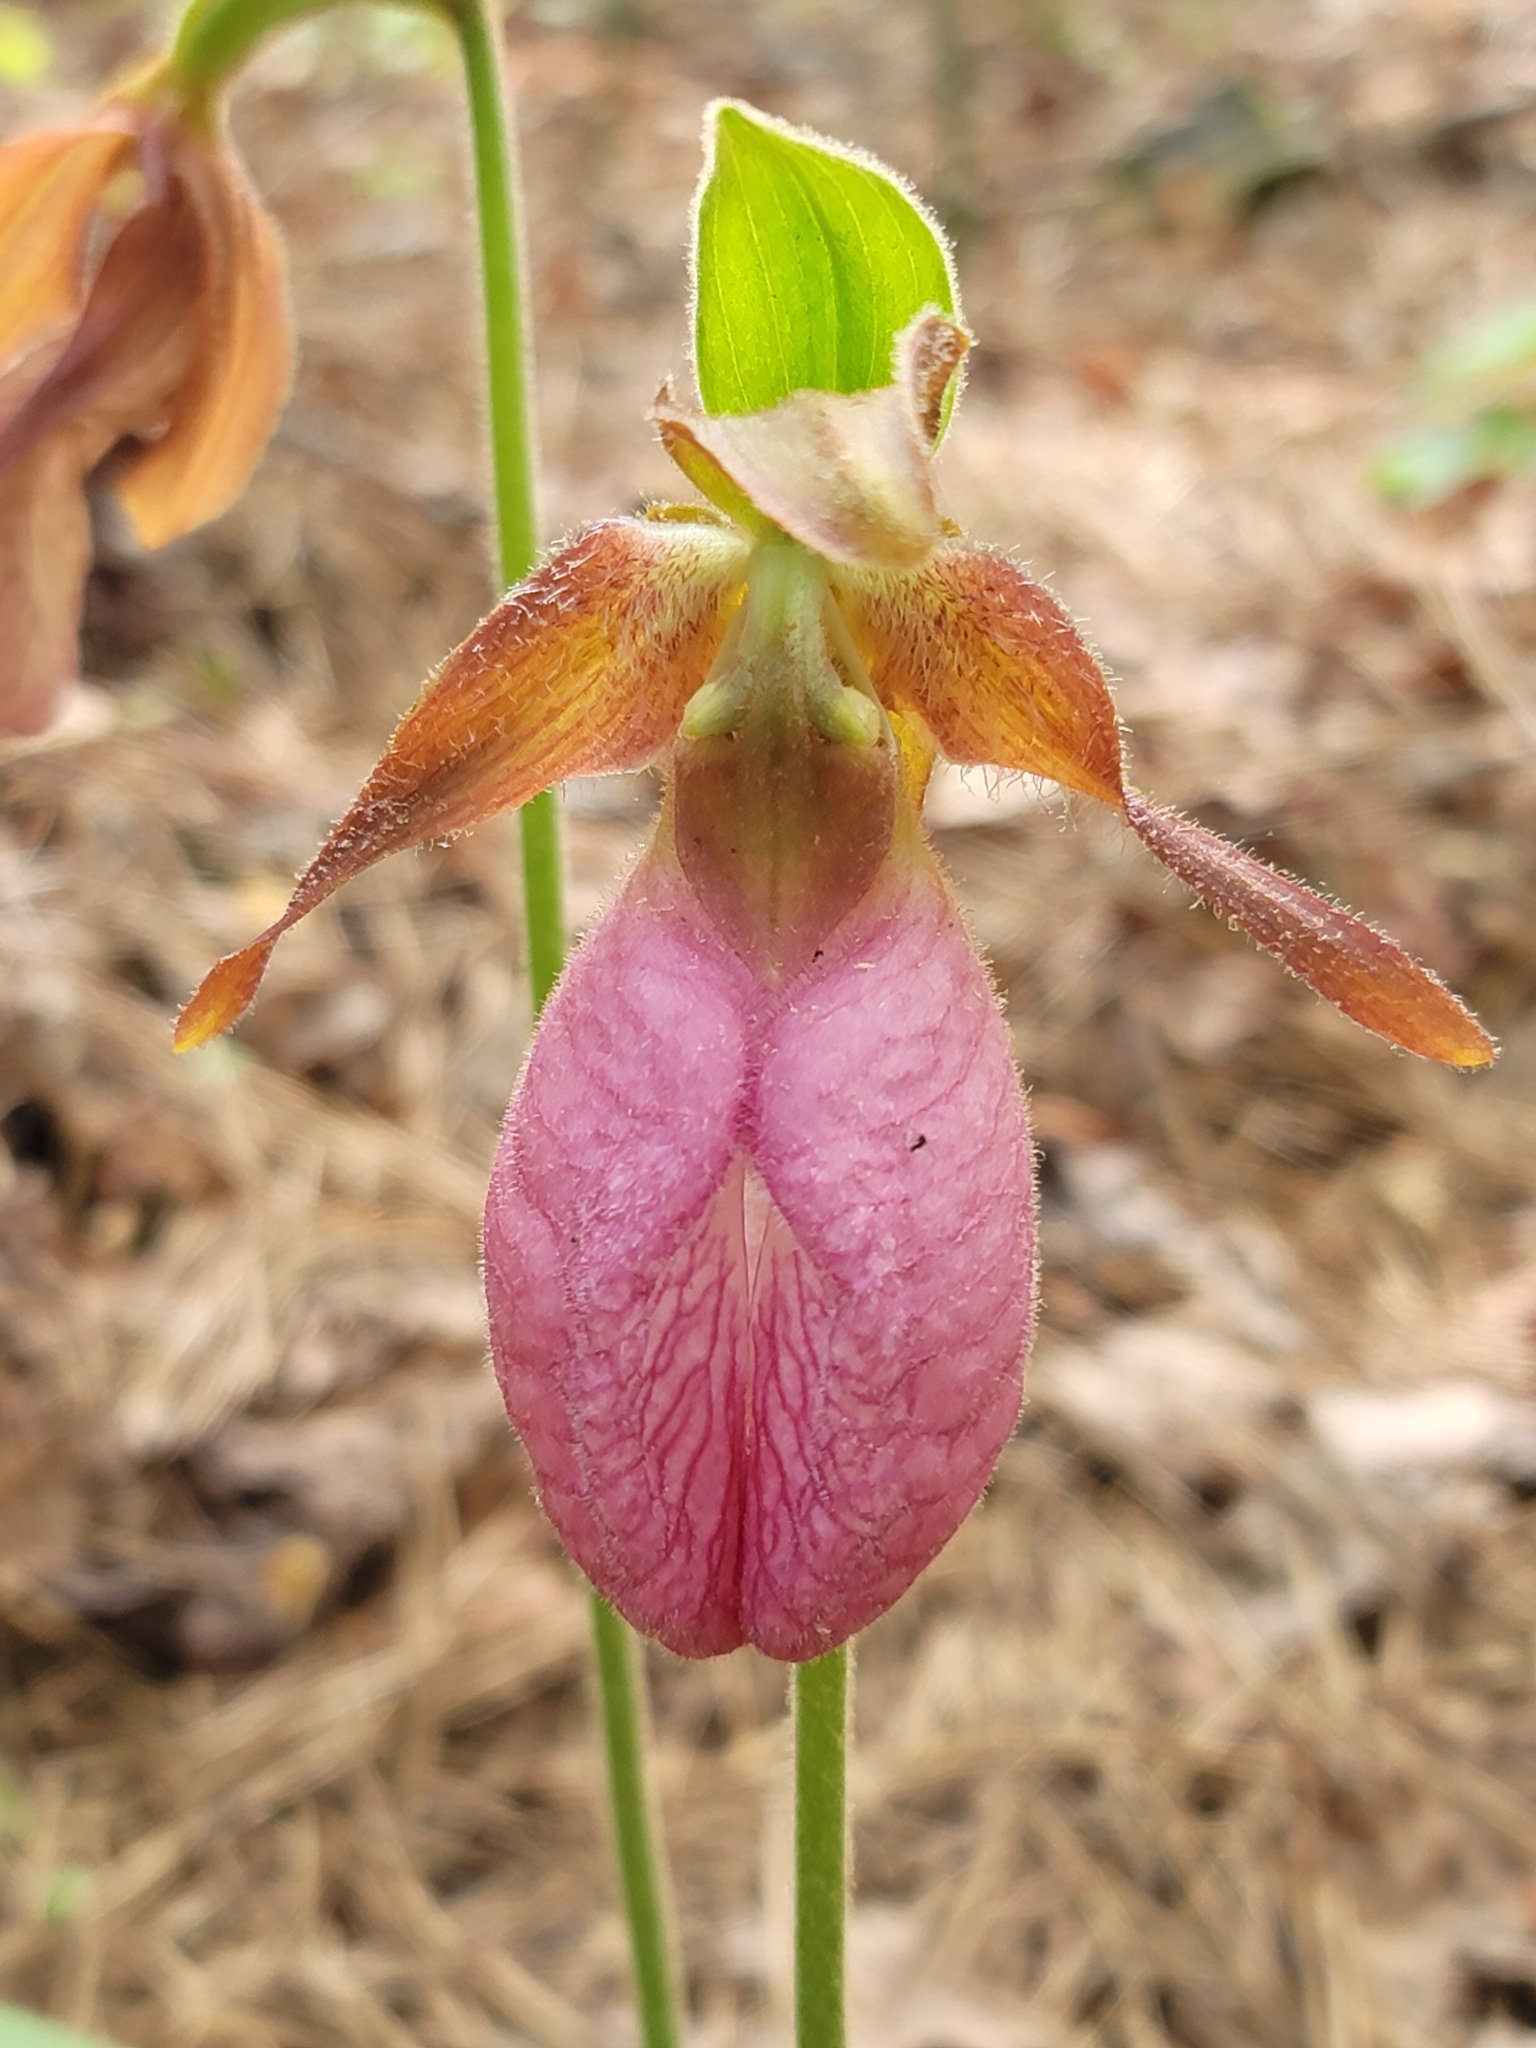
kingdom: Plantae
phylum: Tracheophyta
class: Liliopsida
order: Asparagales
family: Orchidaceae
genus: Cypripedium
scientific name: Cypripedium acaule
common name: Pink lady's-slipper
